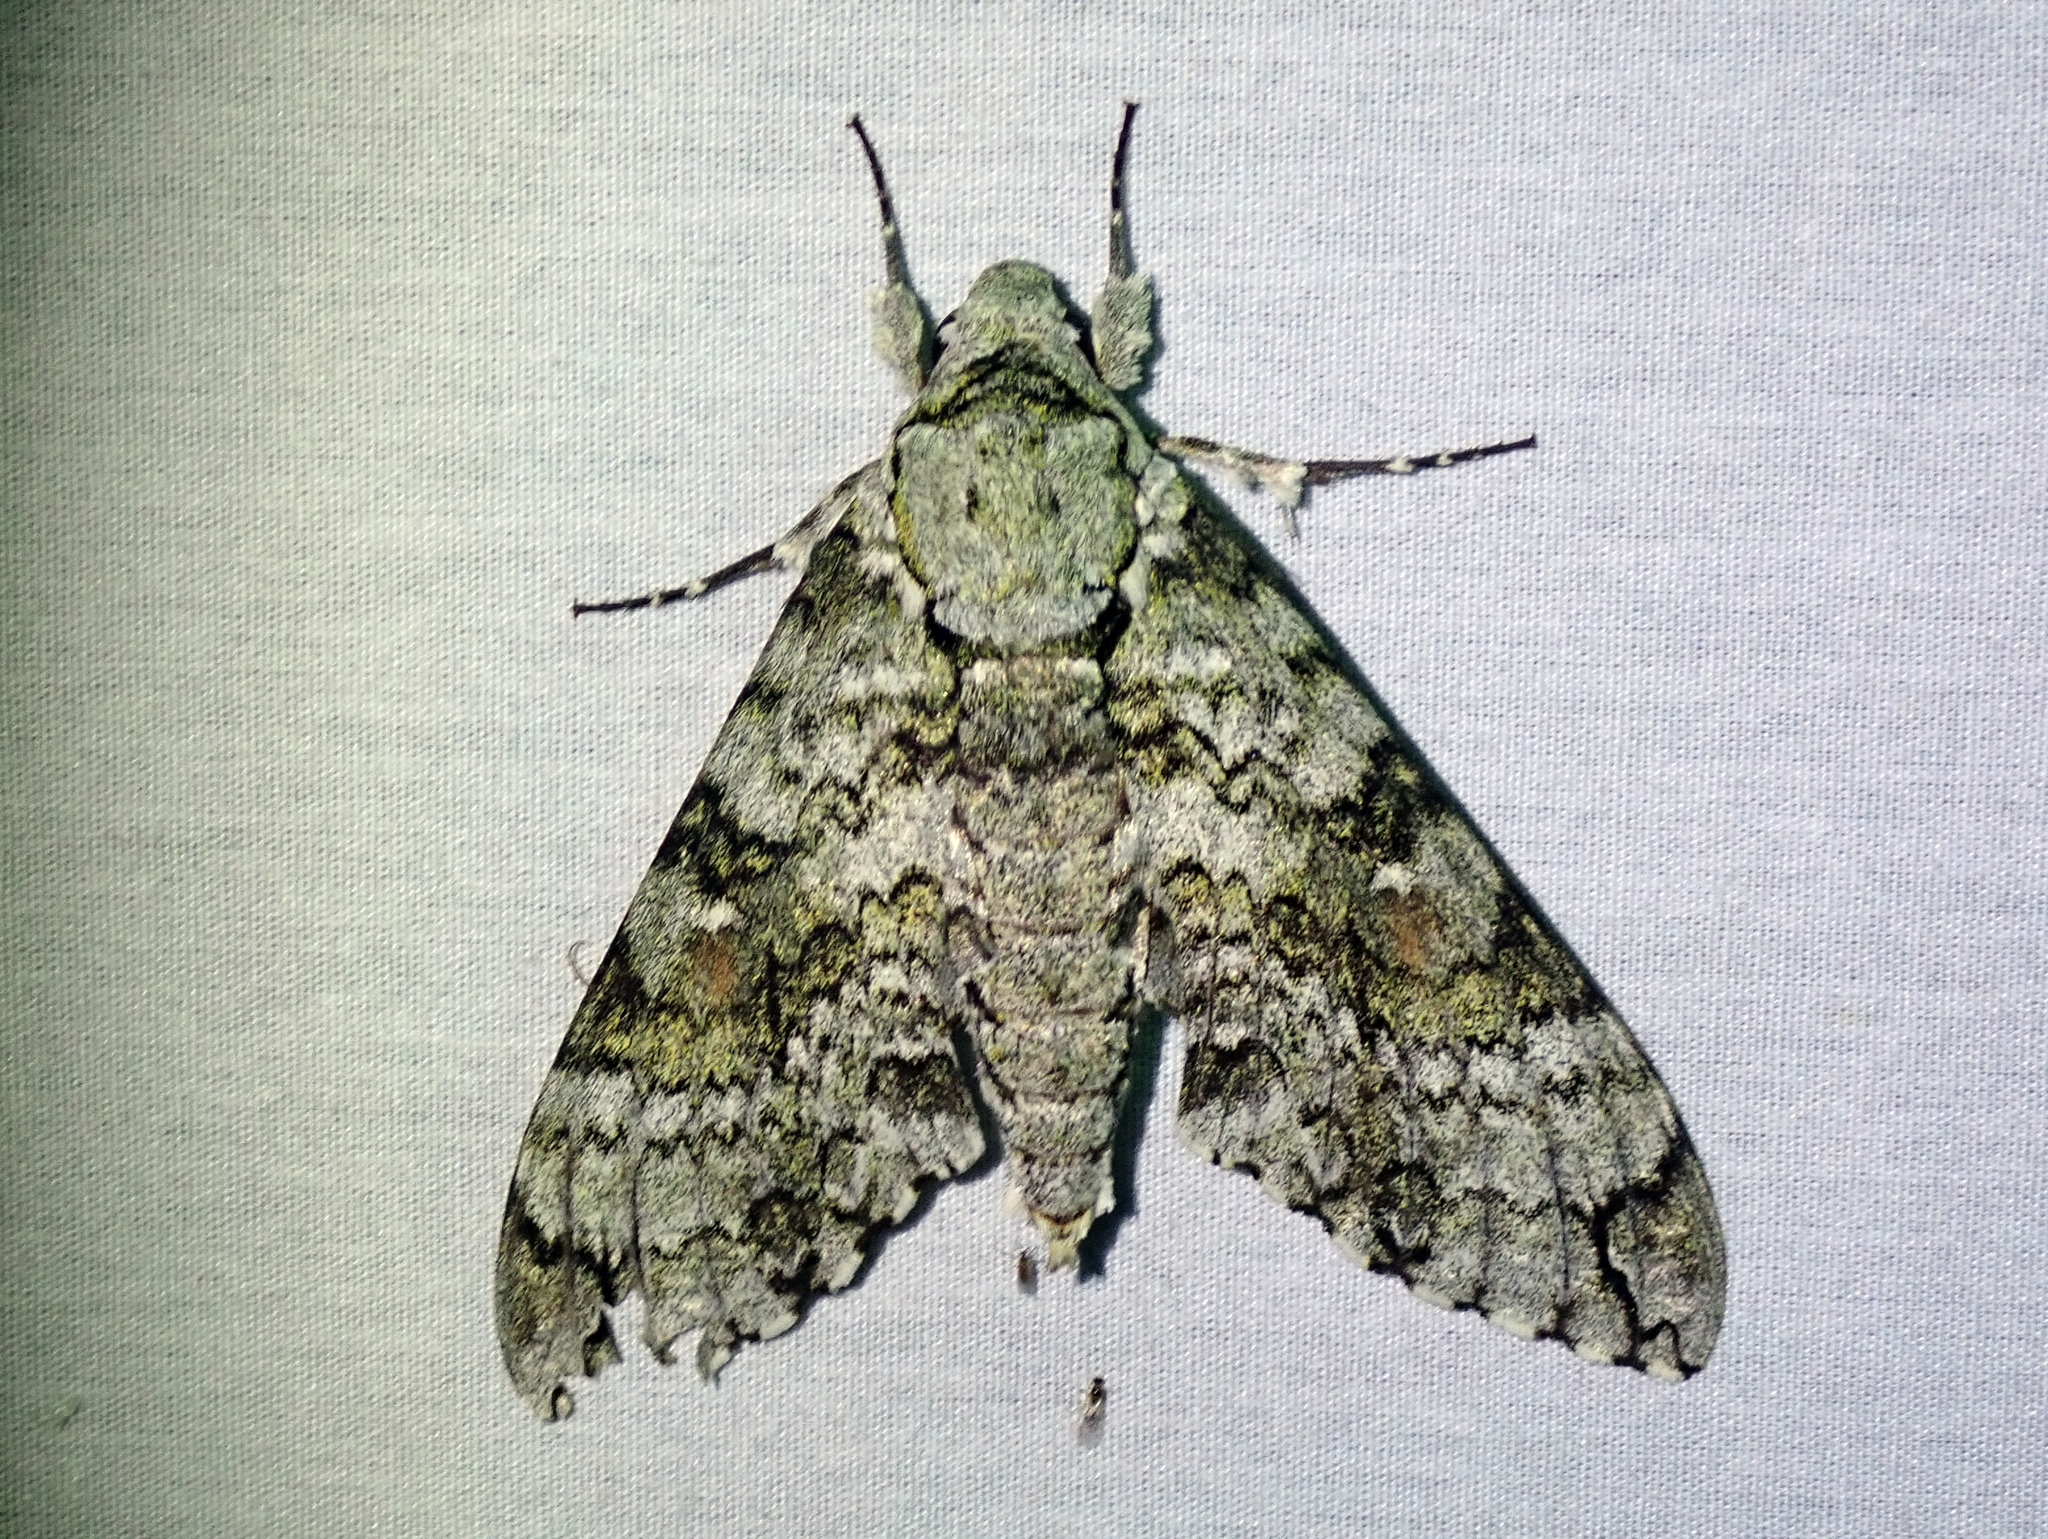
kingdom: Animalia
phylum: Arthropoda
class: Insecta
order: Lepidoptera
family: Sphingidae
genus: Manduca
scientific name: Manduca florestan
